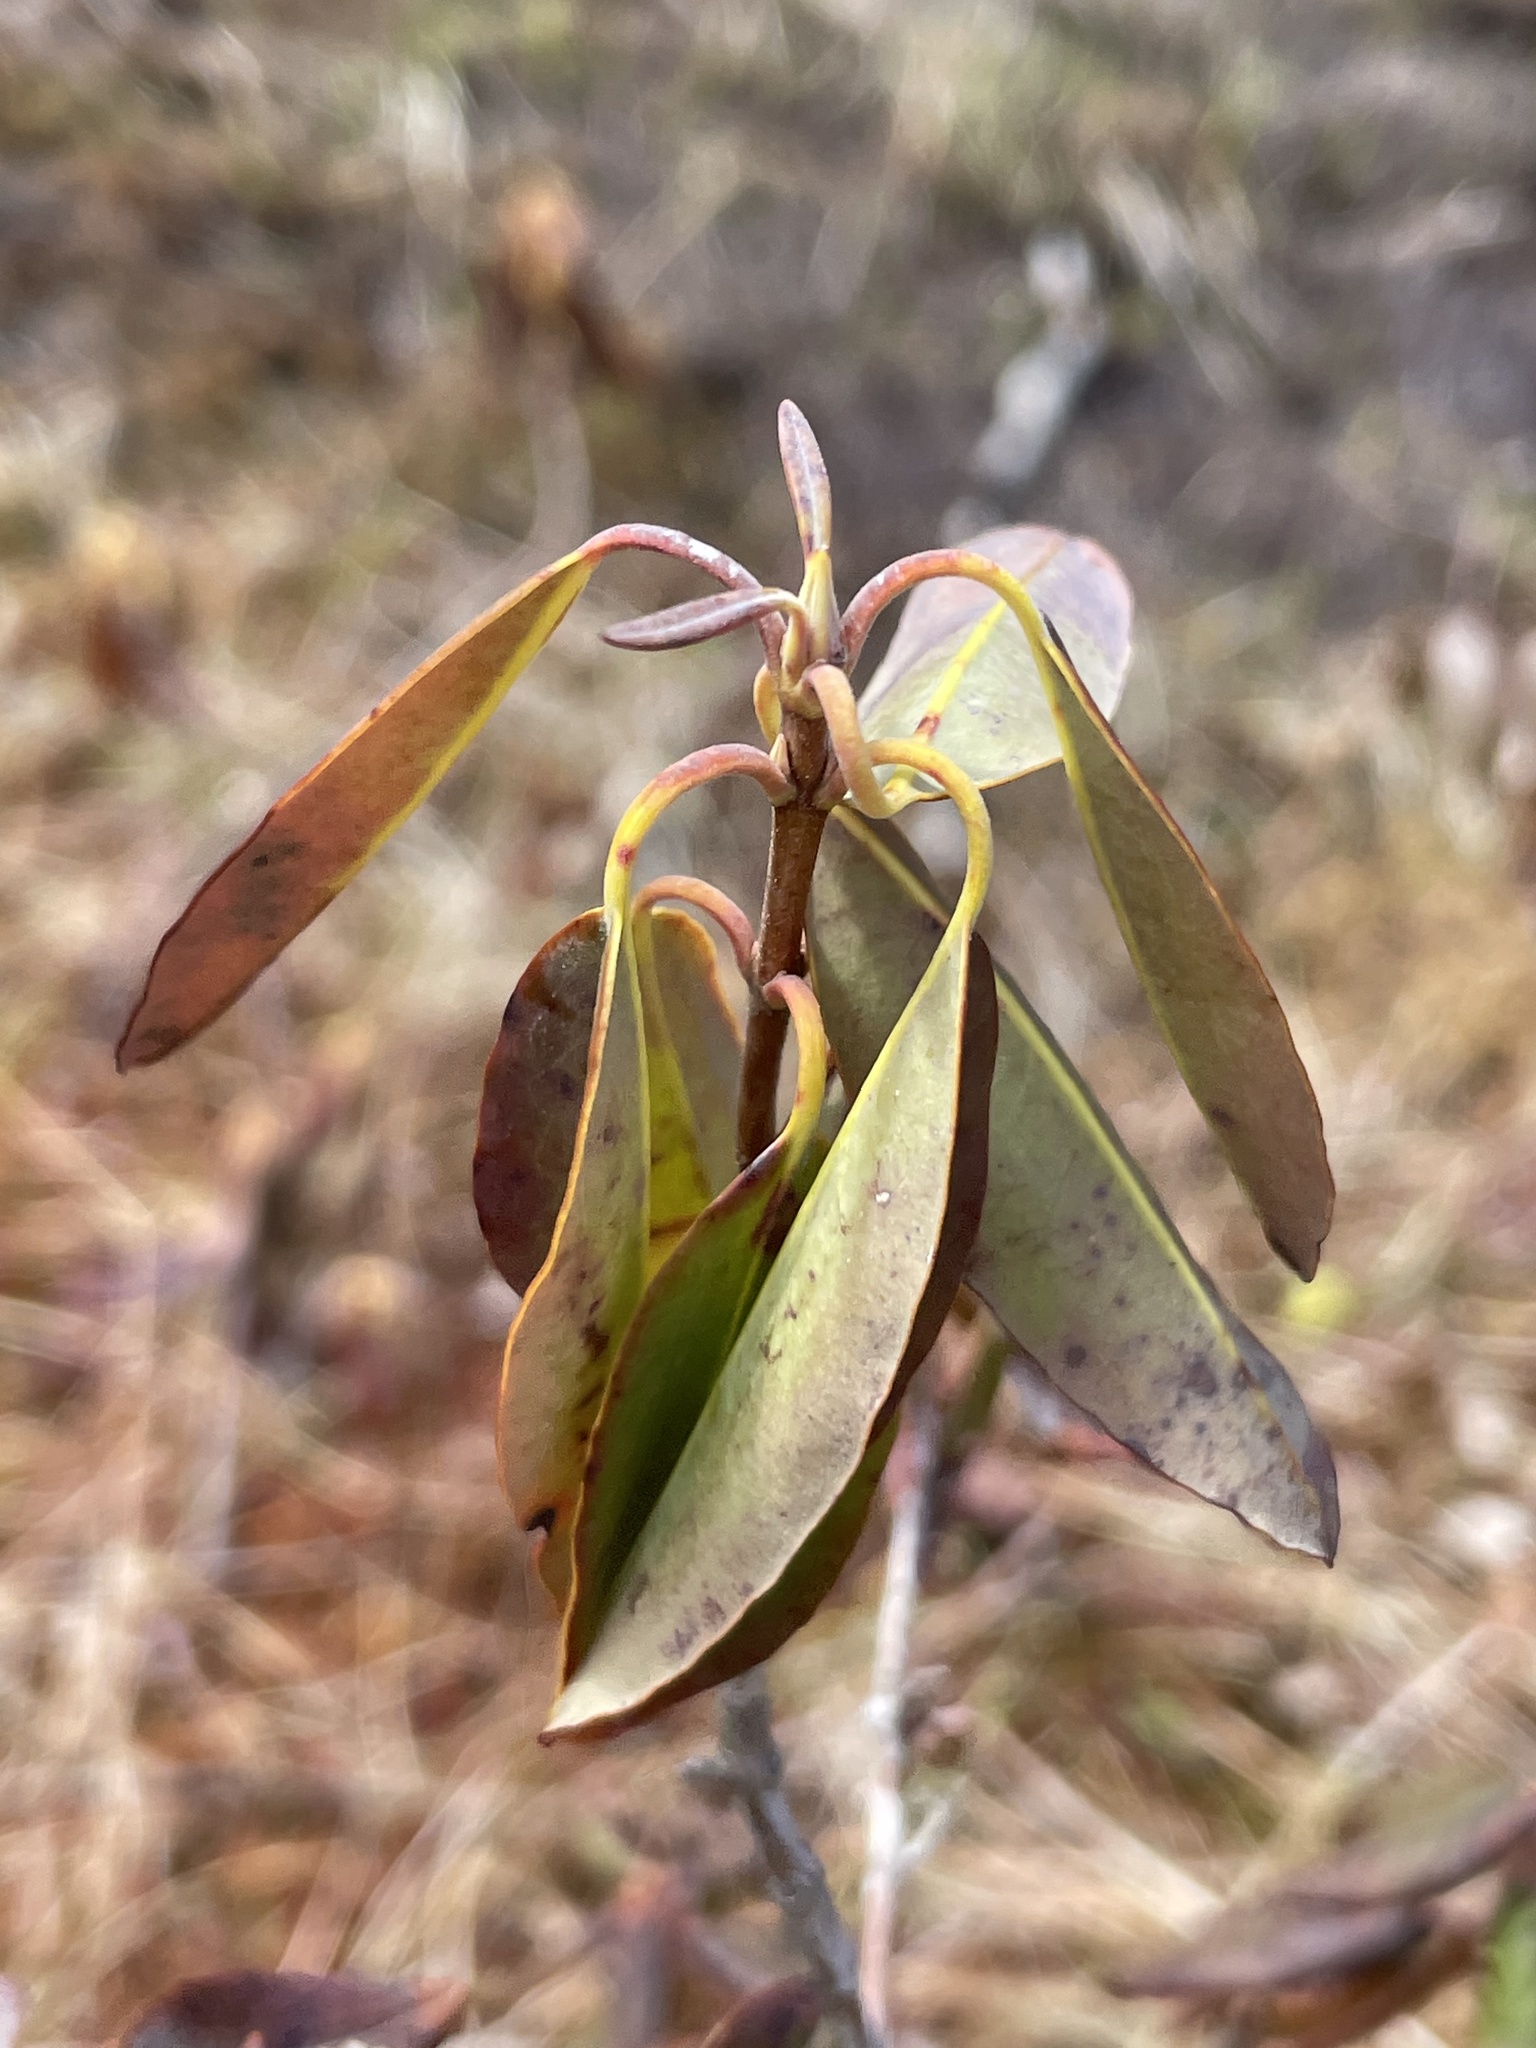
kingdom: Plantae
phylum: Tracheophyta
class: Magnoliopsida
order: Ericales
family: Ericaceae
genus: Kalmia
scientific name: Kalmia angustifolia
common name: Sheep-laurel
